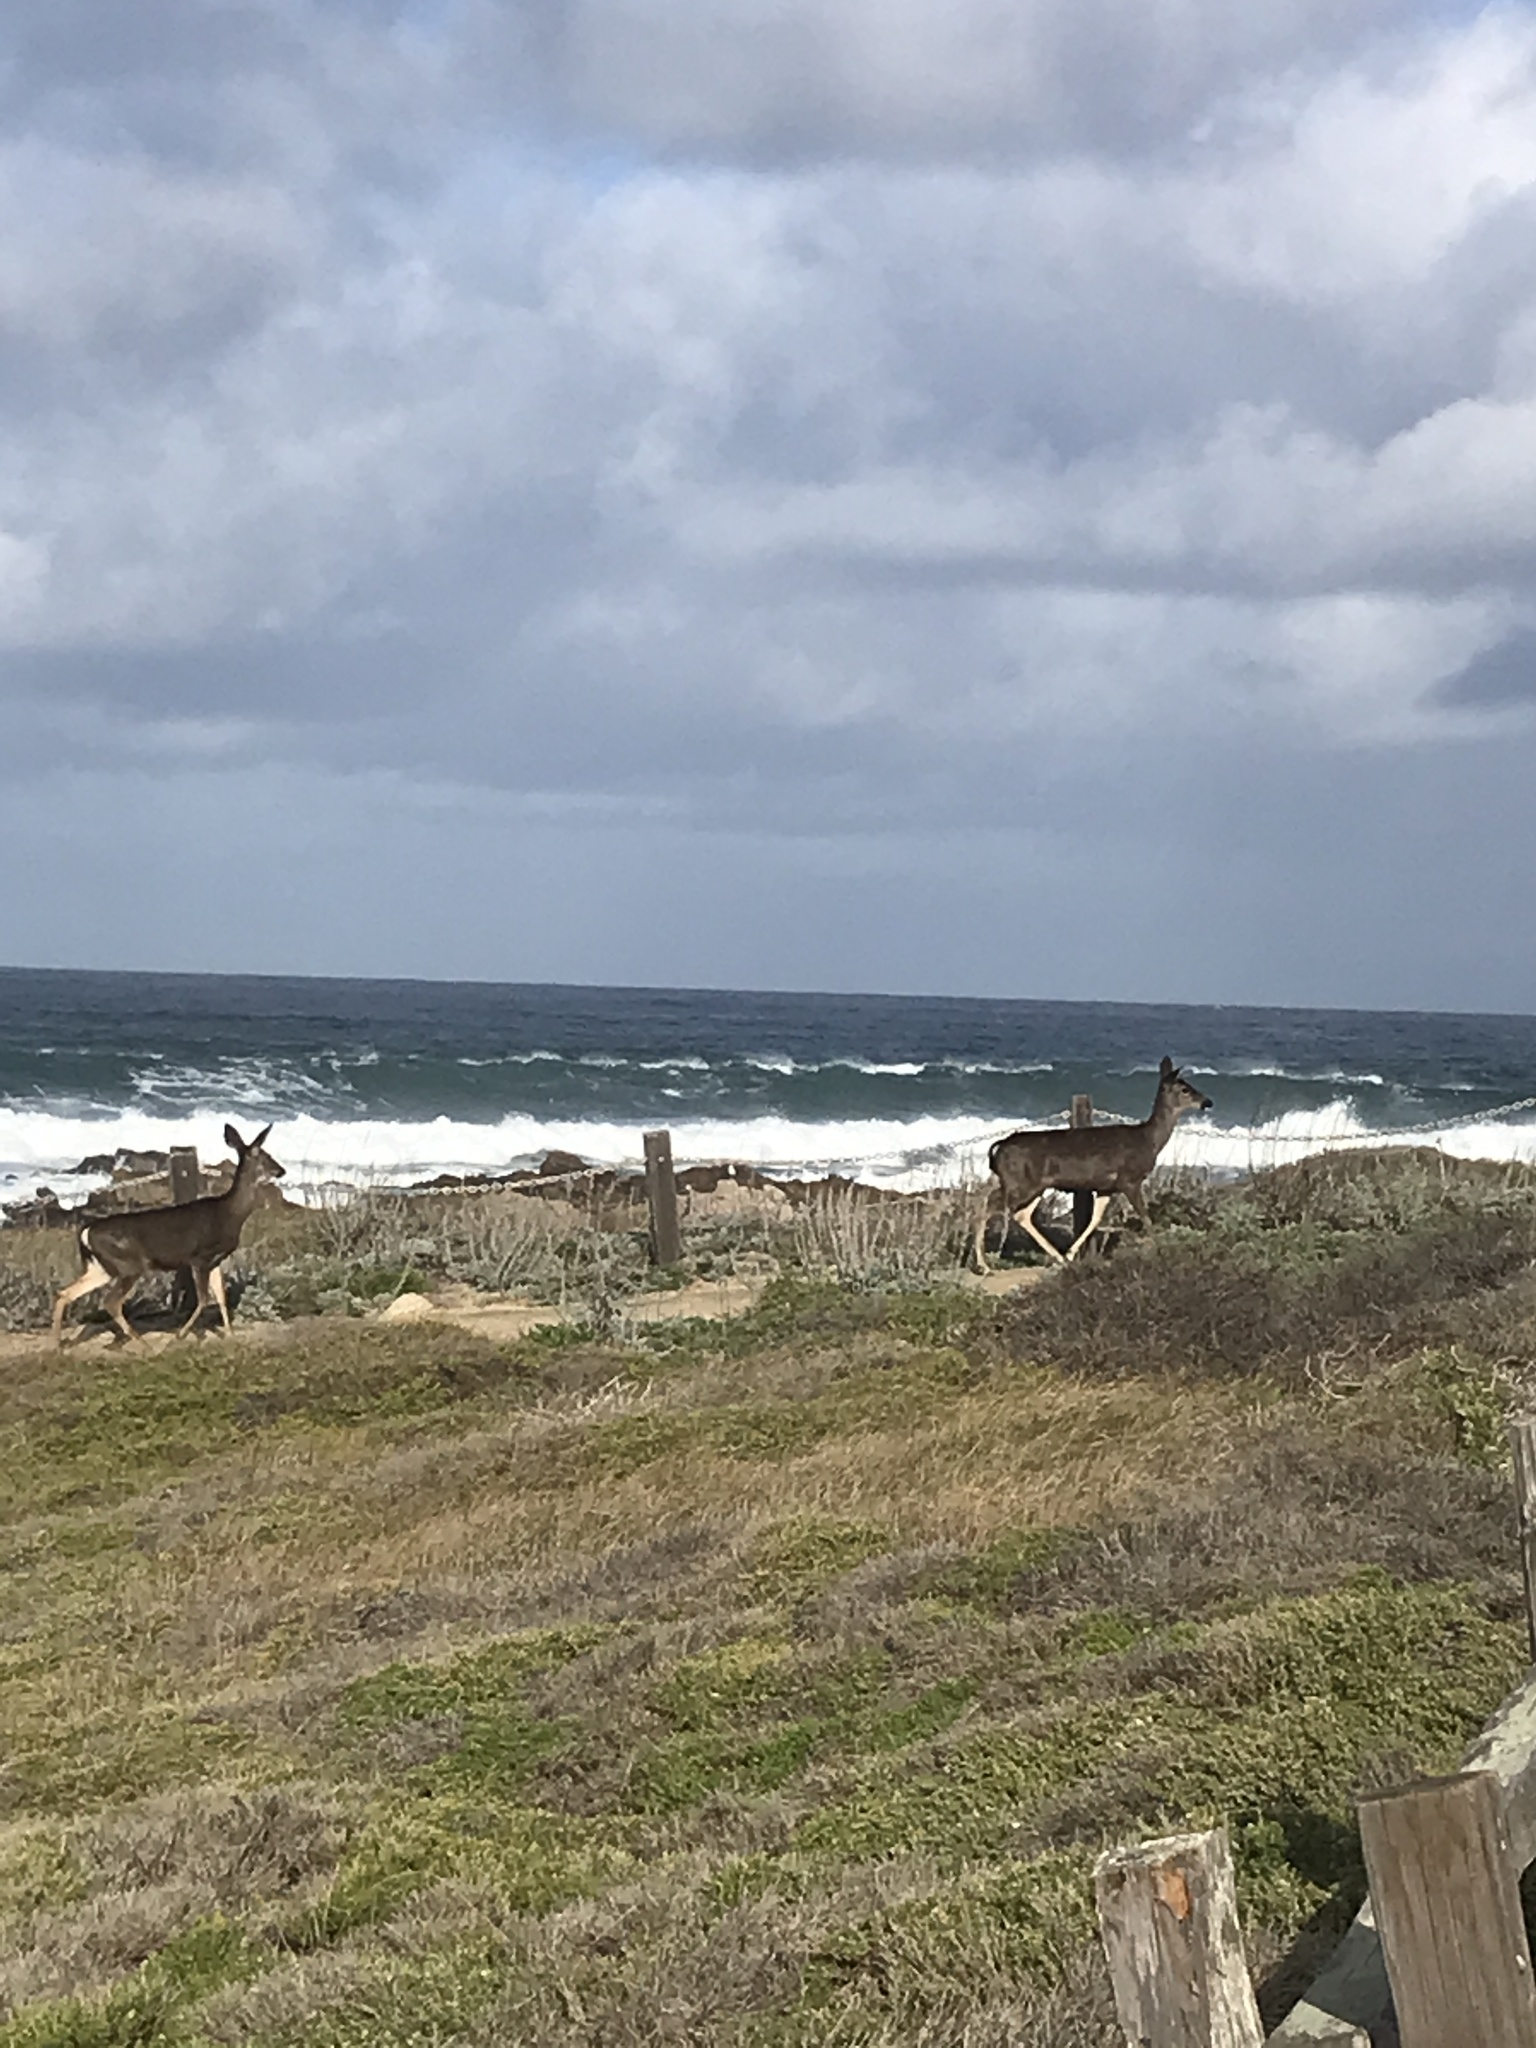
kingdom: Animalia
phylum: Chordata
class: Mammalia
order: Artiodactyla
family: Cervidae
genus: Odocoileus
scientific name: Odocoileus hemionus
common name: Mule deer
